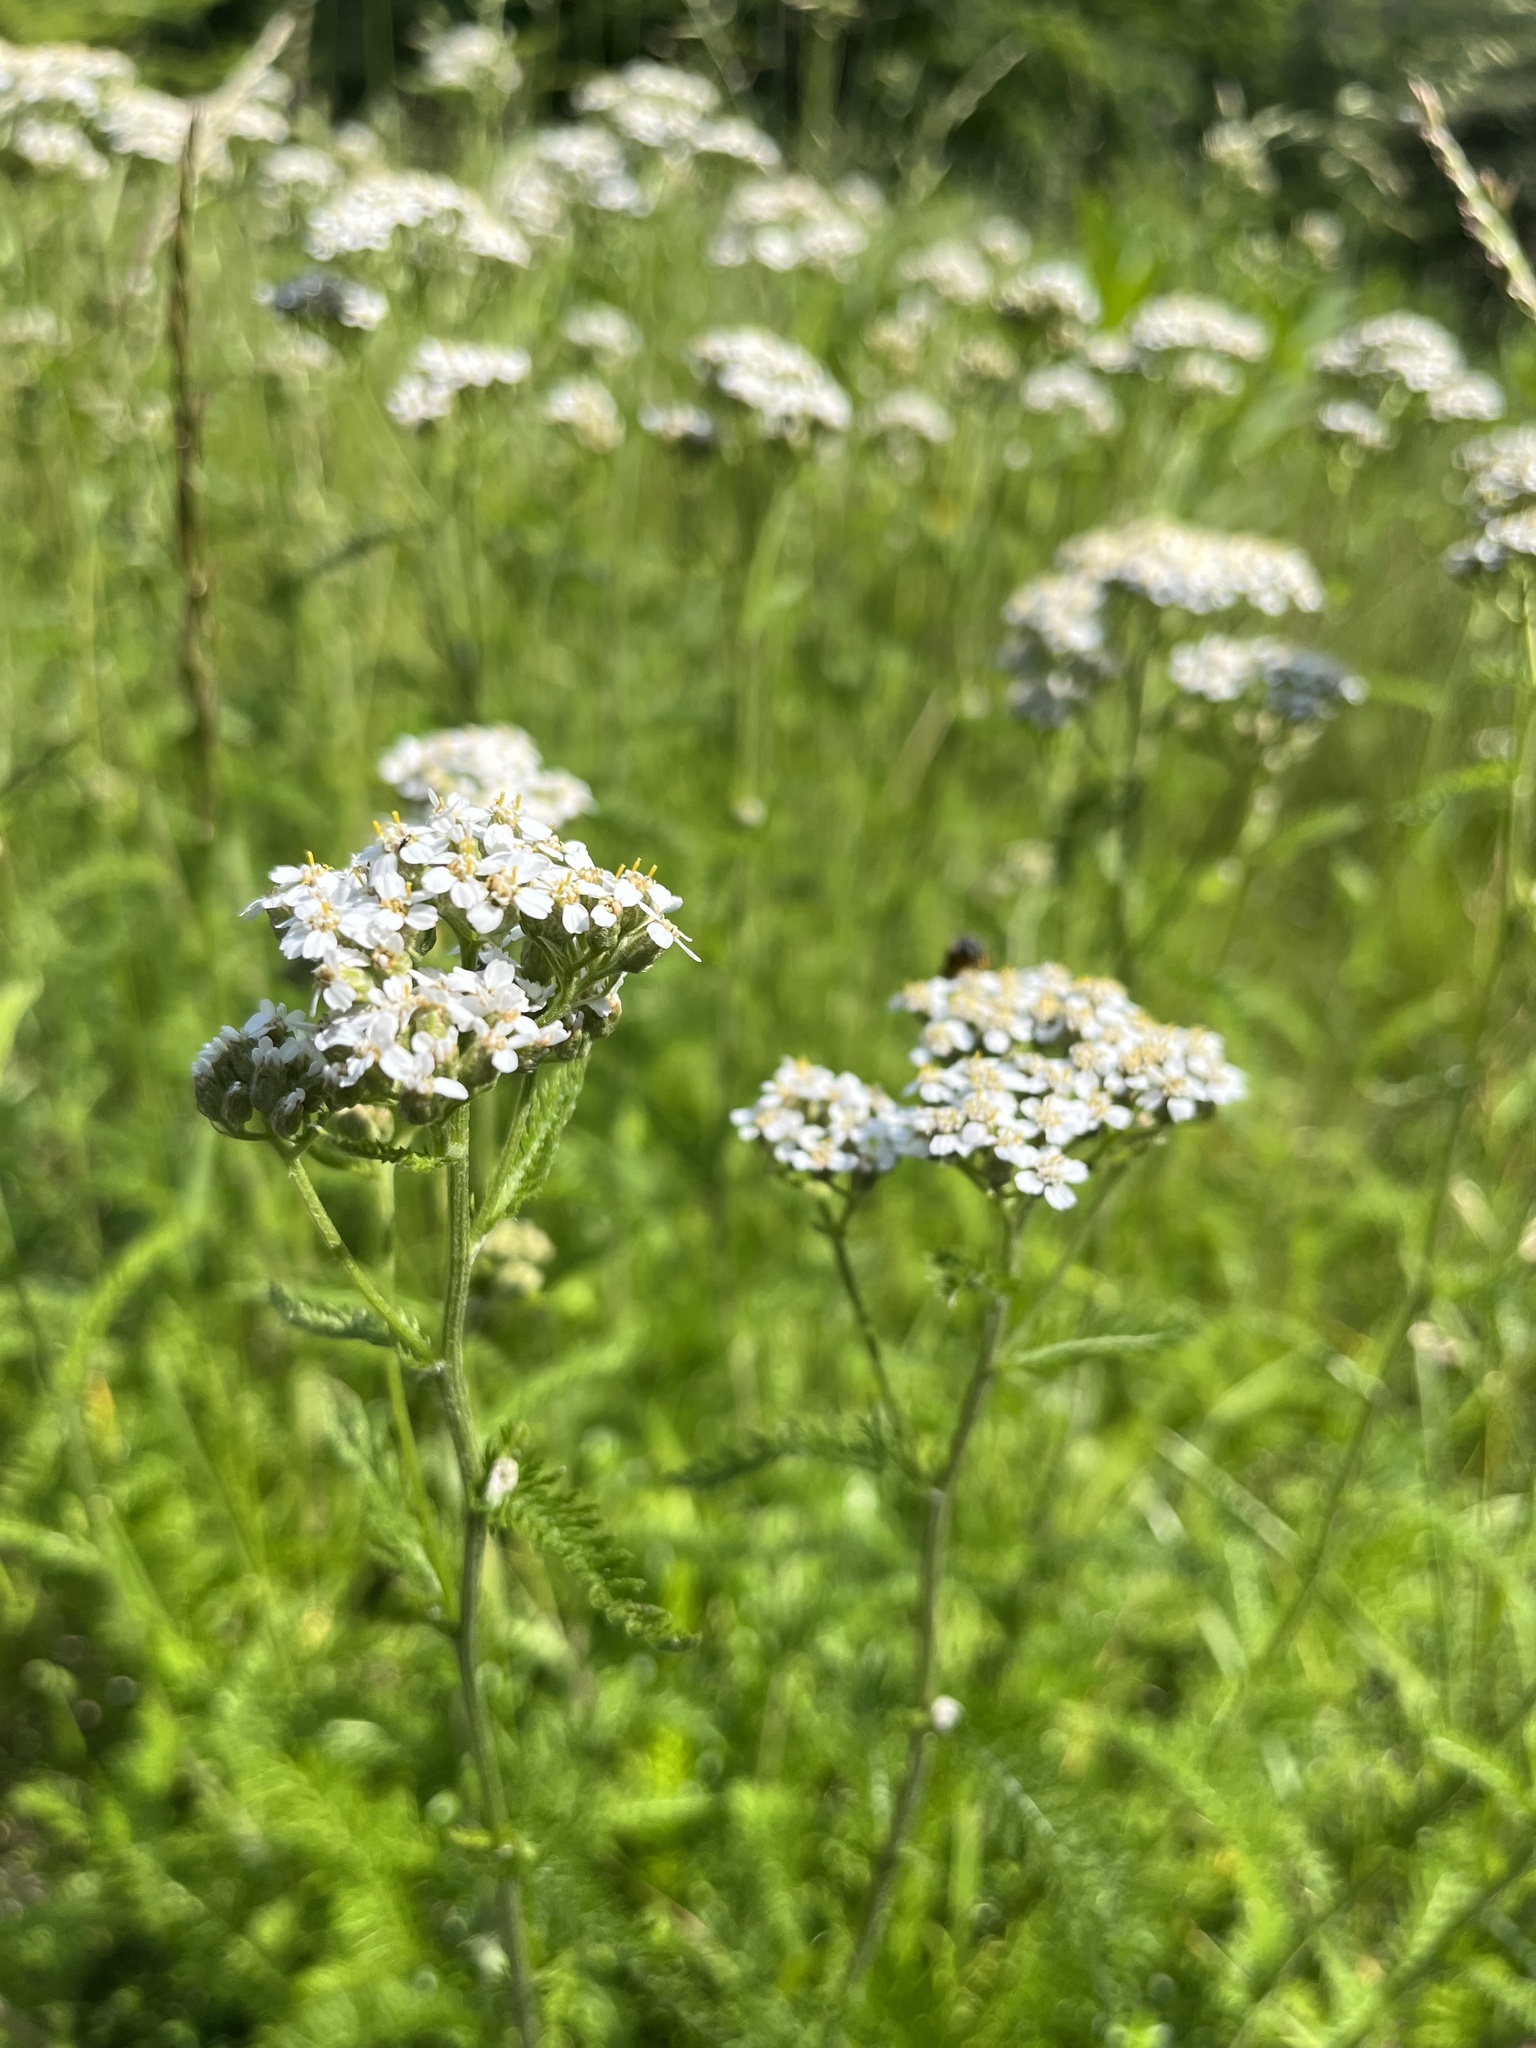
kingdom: Plantae
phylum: Tracheophyta
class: Magnoliopsida
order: Asterales
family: Asteraceae
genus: Achillea
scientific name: Achillea millefolium
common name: Yarrow
